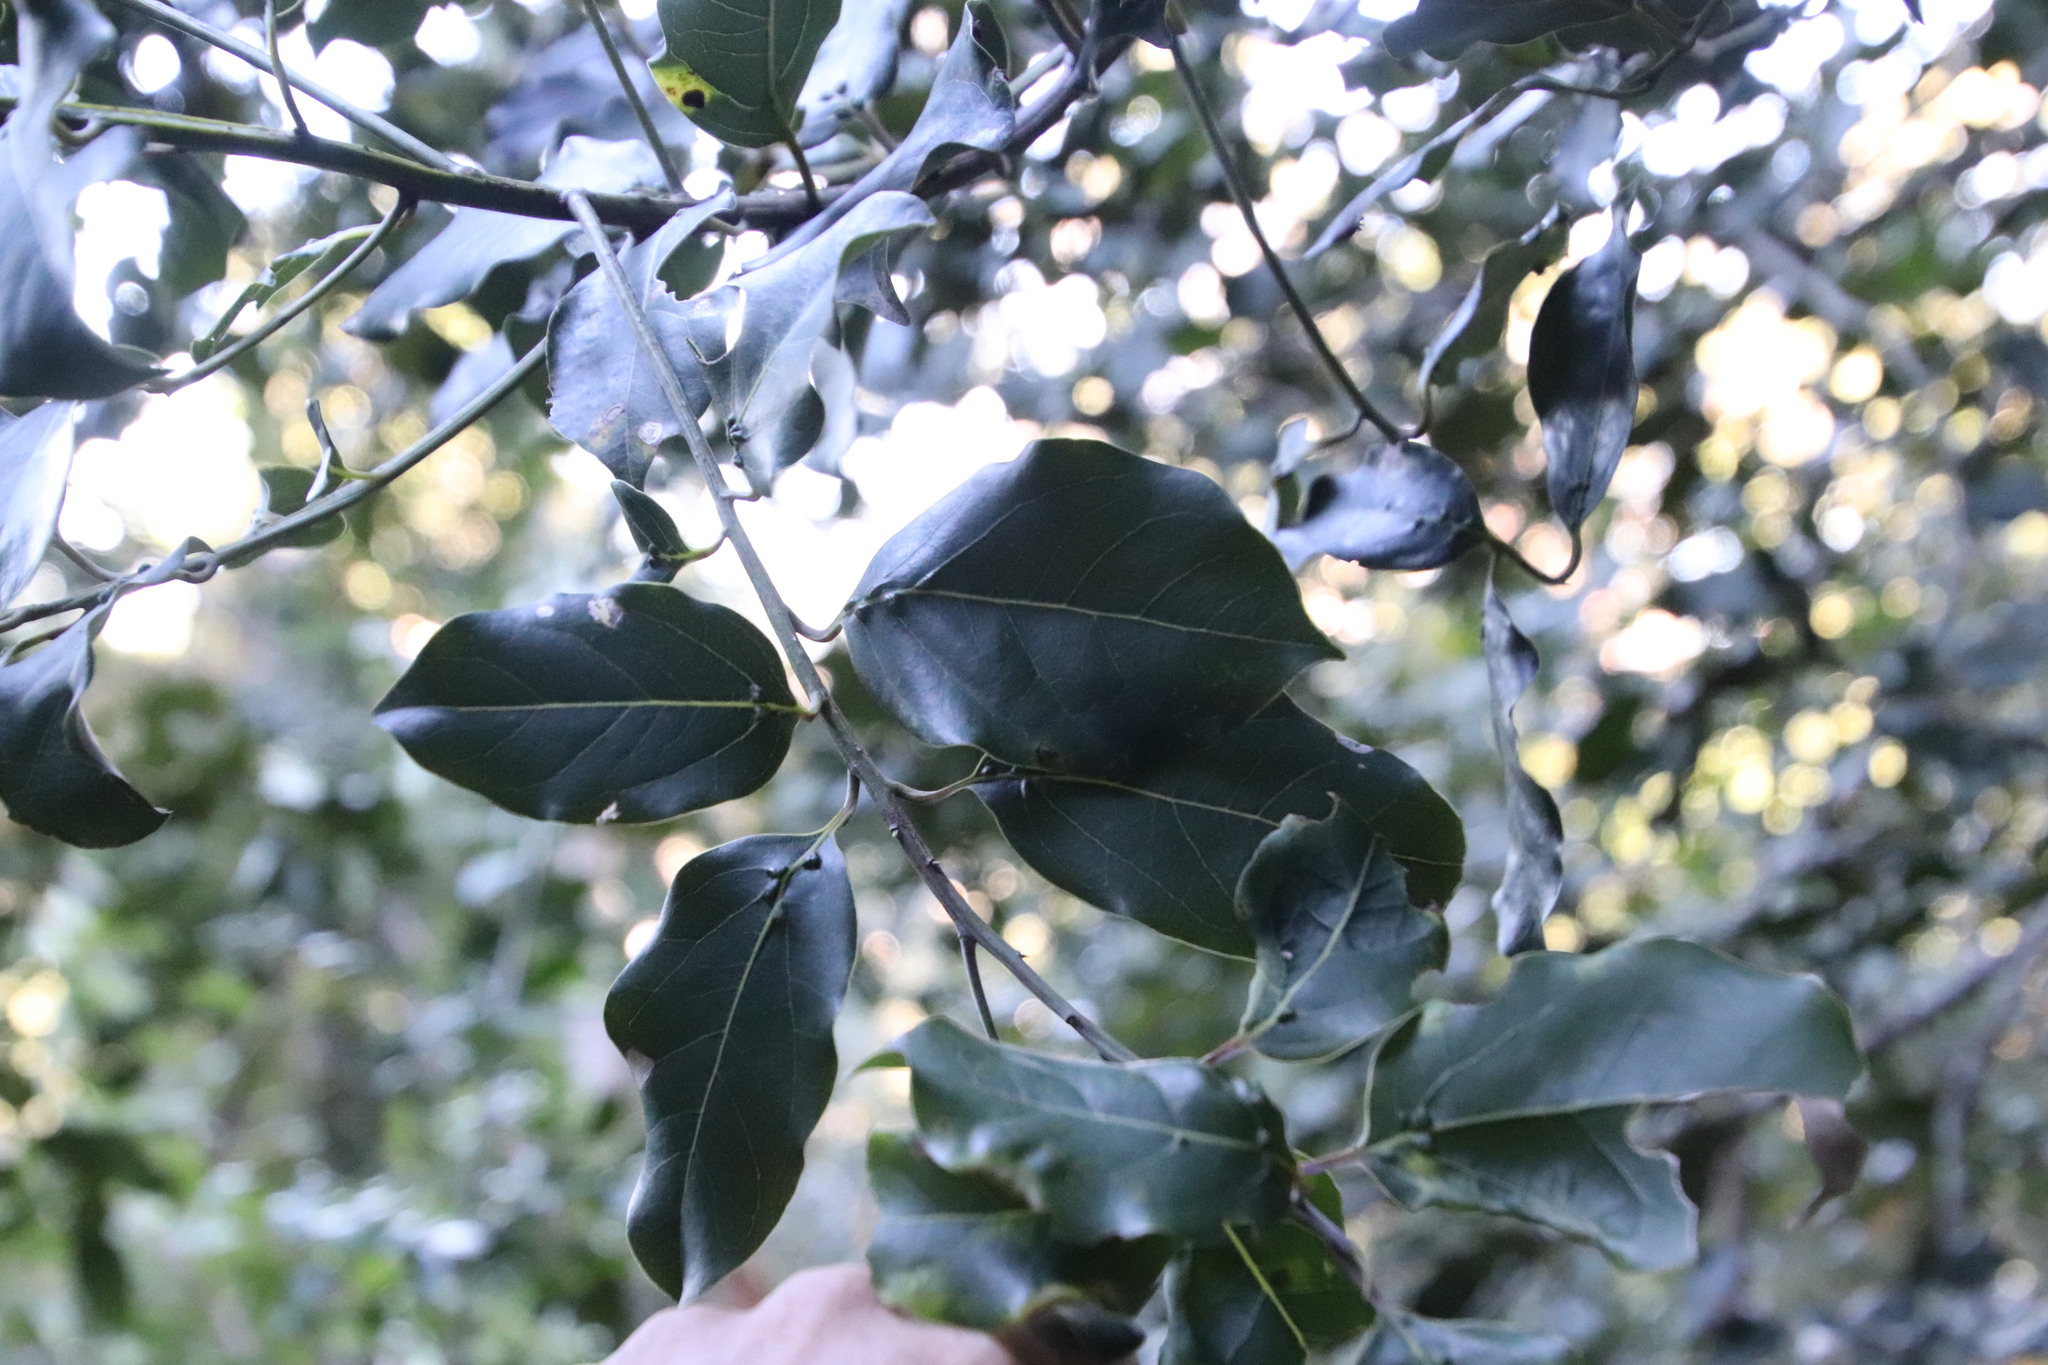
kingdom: Plantae
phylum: Tracheophyta
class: Magnoliopsida
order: Laurales
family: Lauraceae
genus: Ocotea
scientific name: Ocotea bullata
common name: Black stinkwood
